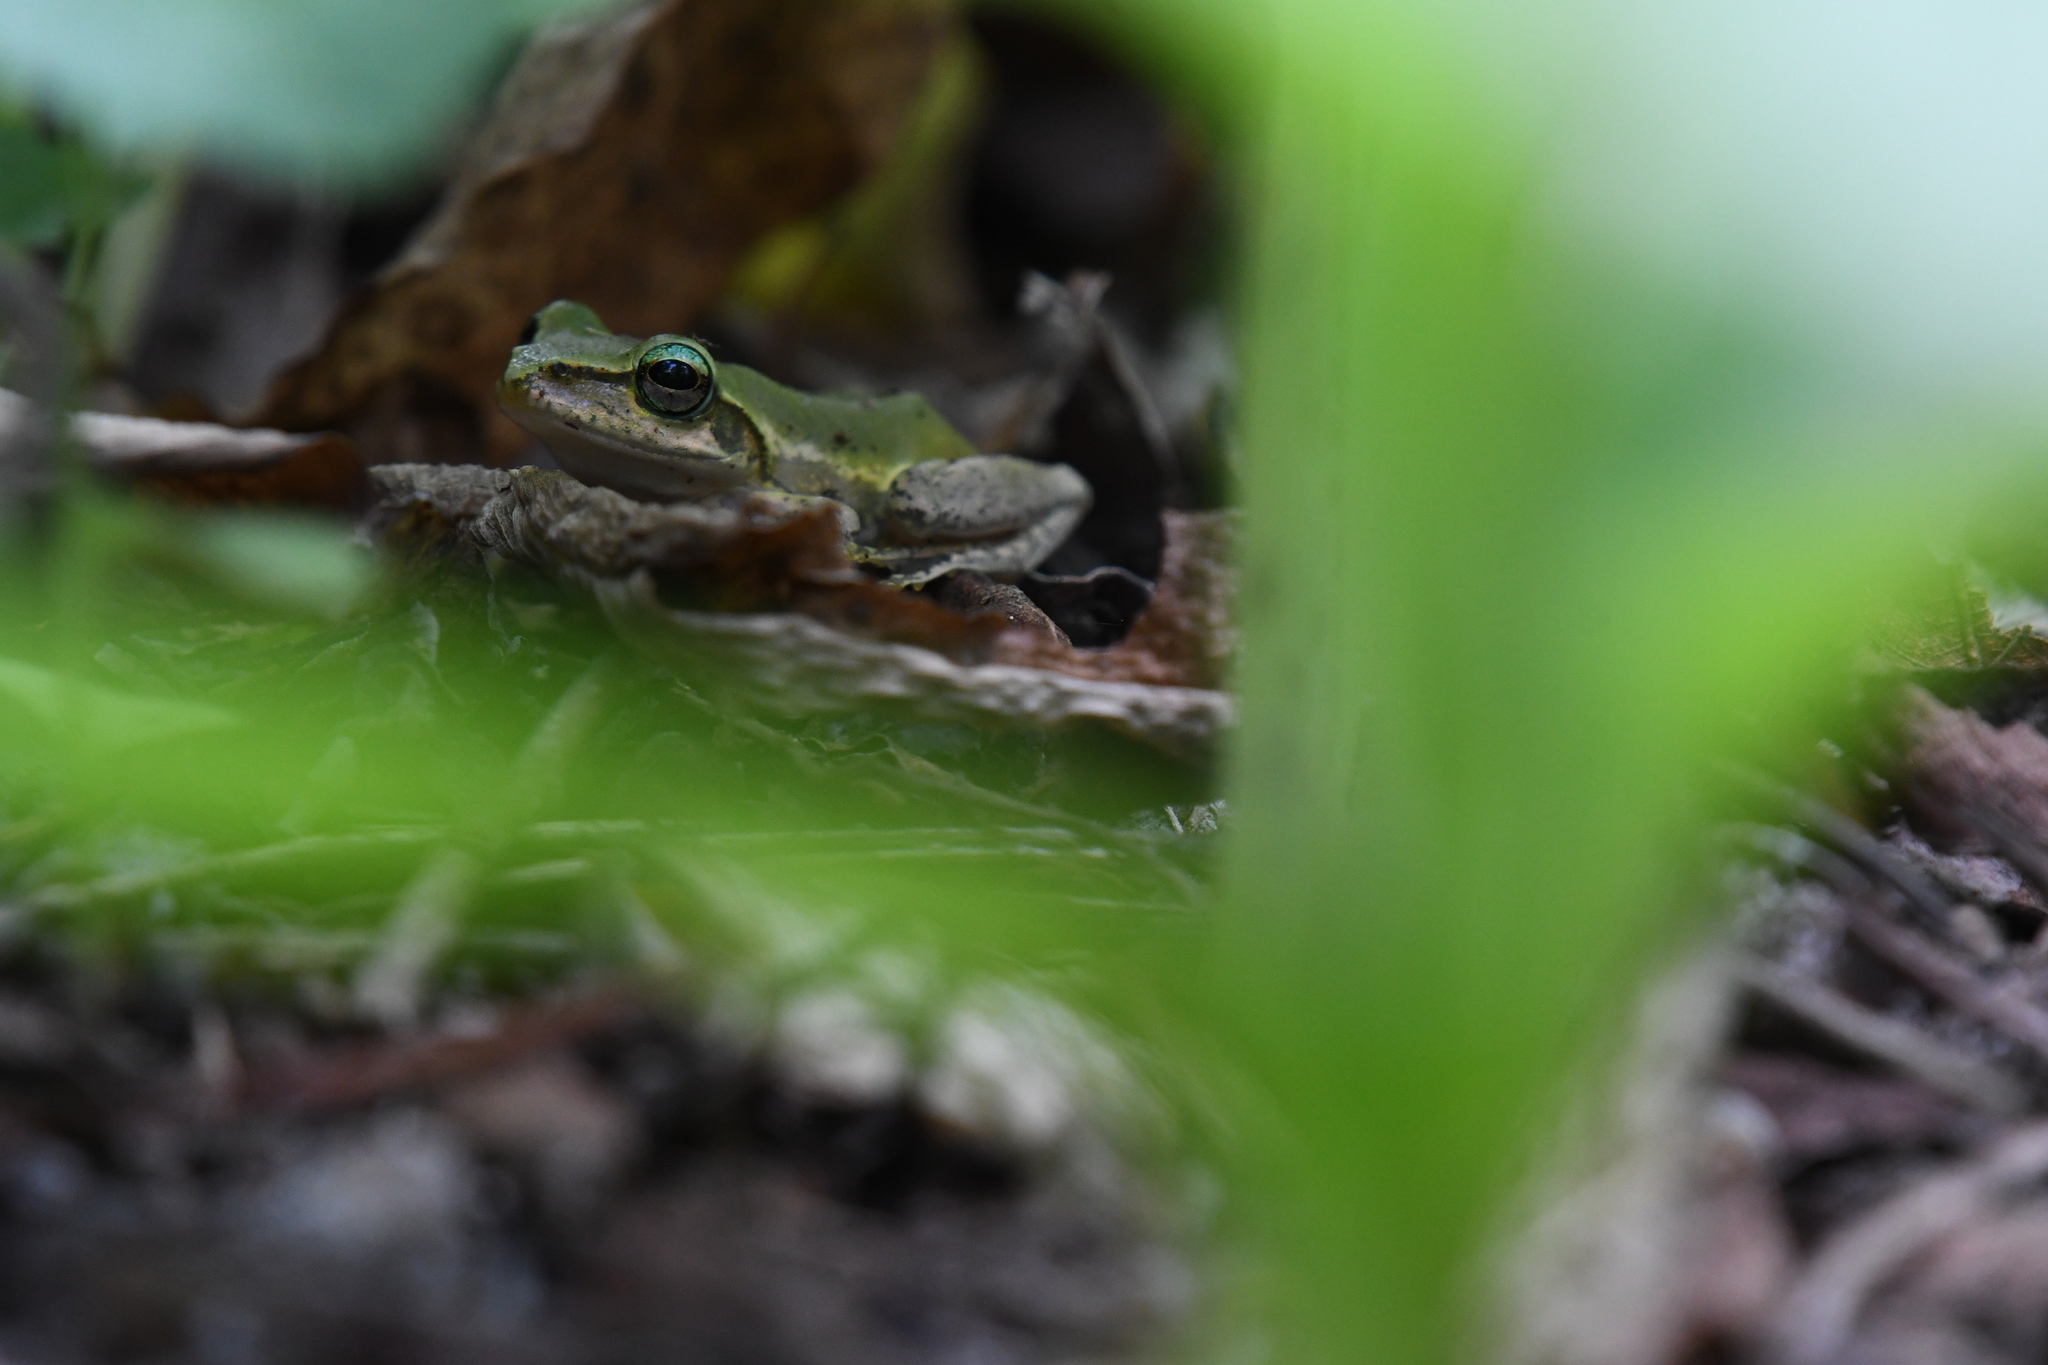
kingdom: Animalia
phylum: Chordata
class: Amphibia
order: Anura
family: Mantellidae
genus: Boophis
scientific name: Boophis tephraeomystax
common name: Dumeril's bright-eyed frog
